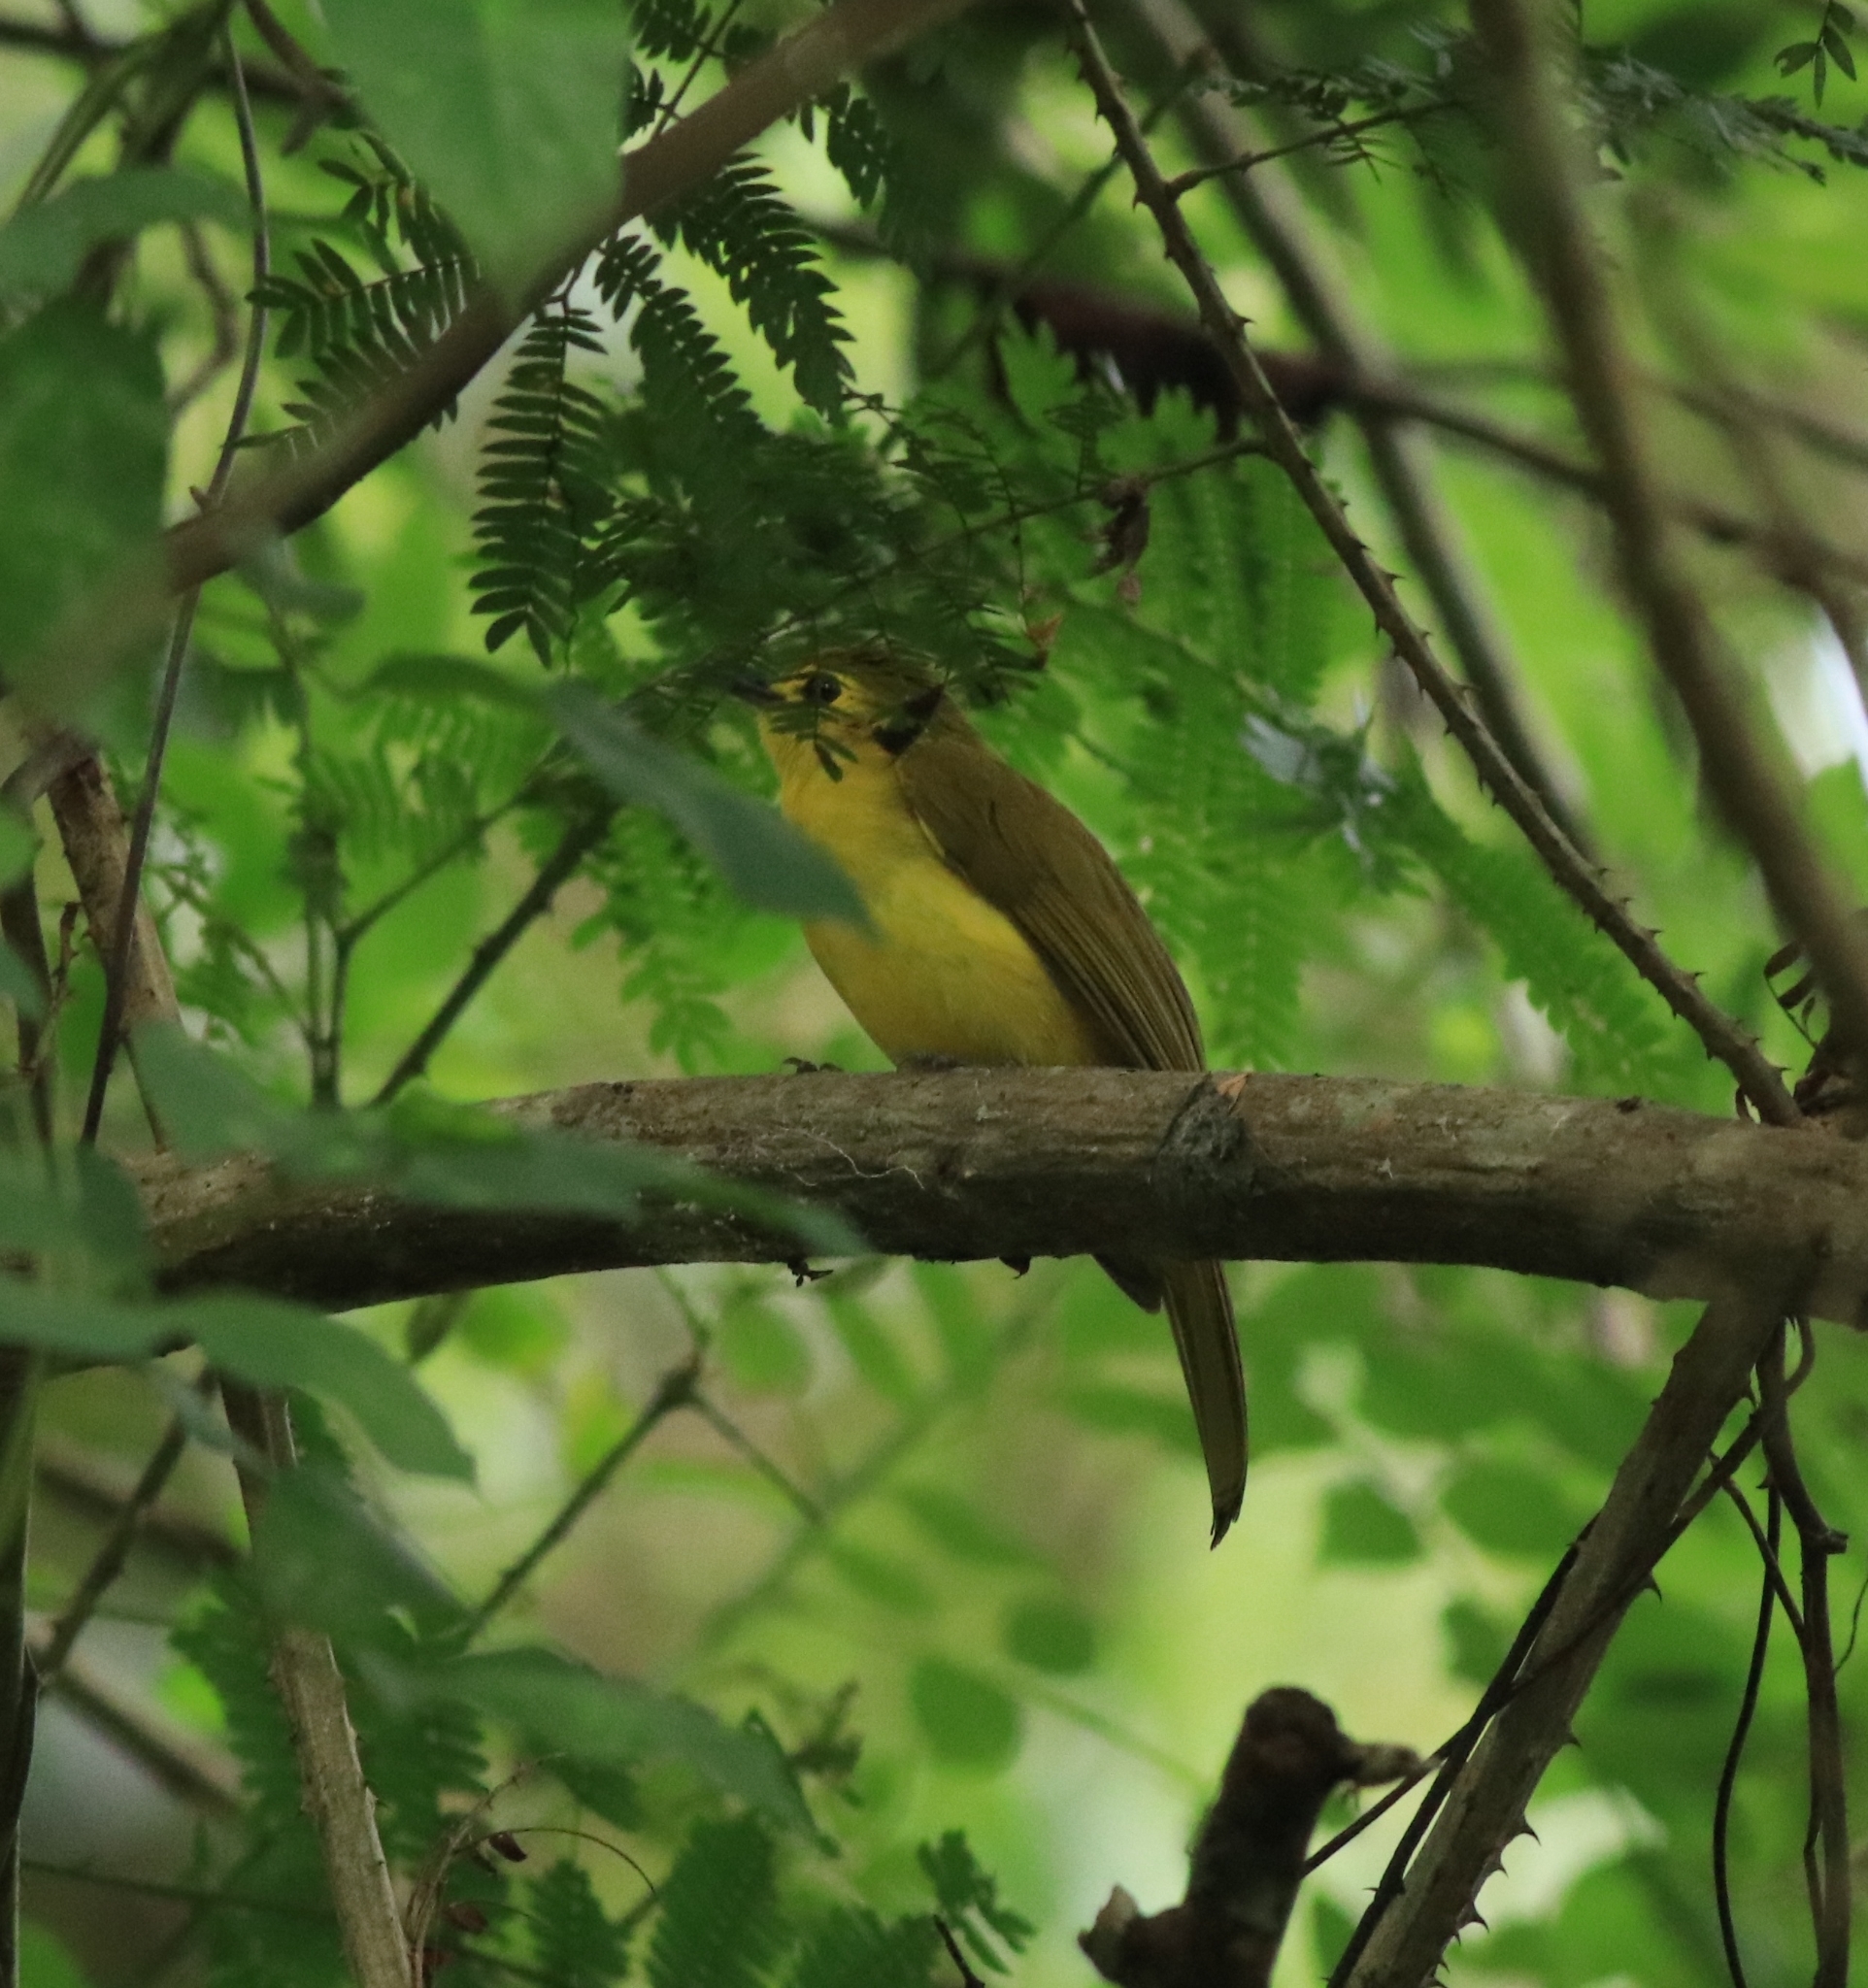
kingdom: Animalia
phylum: Chordata
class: Aves
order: Passeriformes
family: Pycnonotidae
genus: Acritillas
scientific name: Acritillas indica
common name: Yellow-browed bulbul
